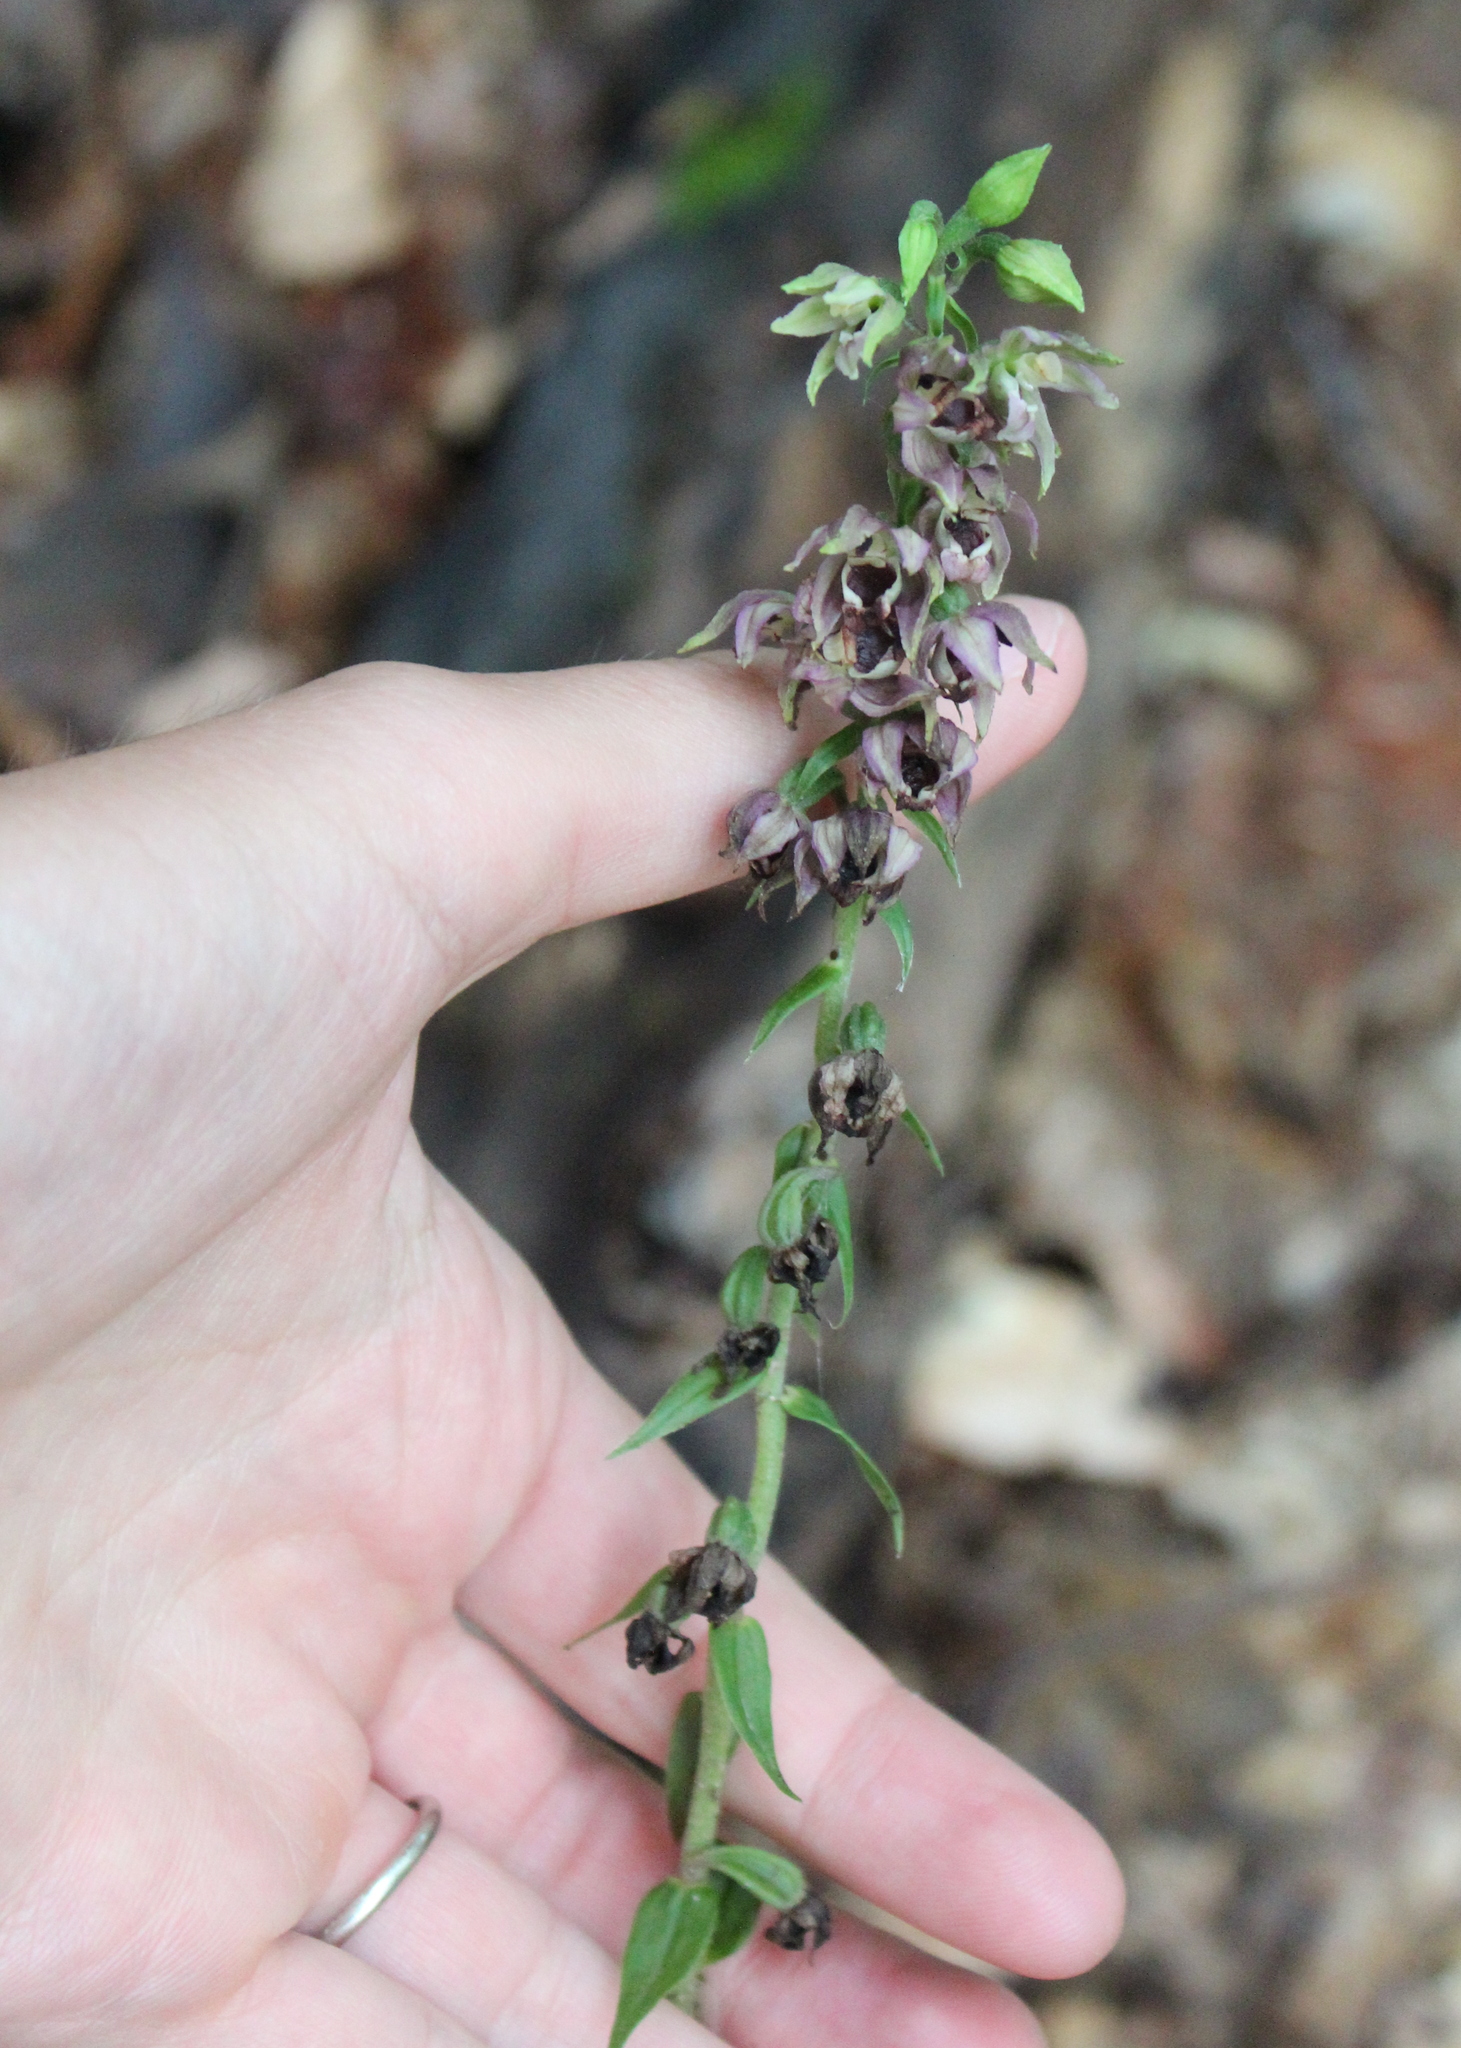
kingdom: Plantae
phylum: Tracheophyta
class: Liliopsida
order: Asparagales
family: Orchidaceae
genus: Epipactis
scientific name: Epipactis helleborine
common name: Broad-leaved helleborine
